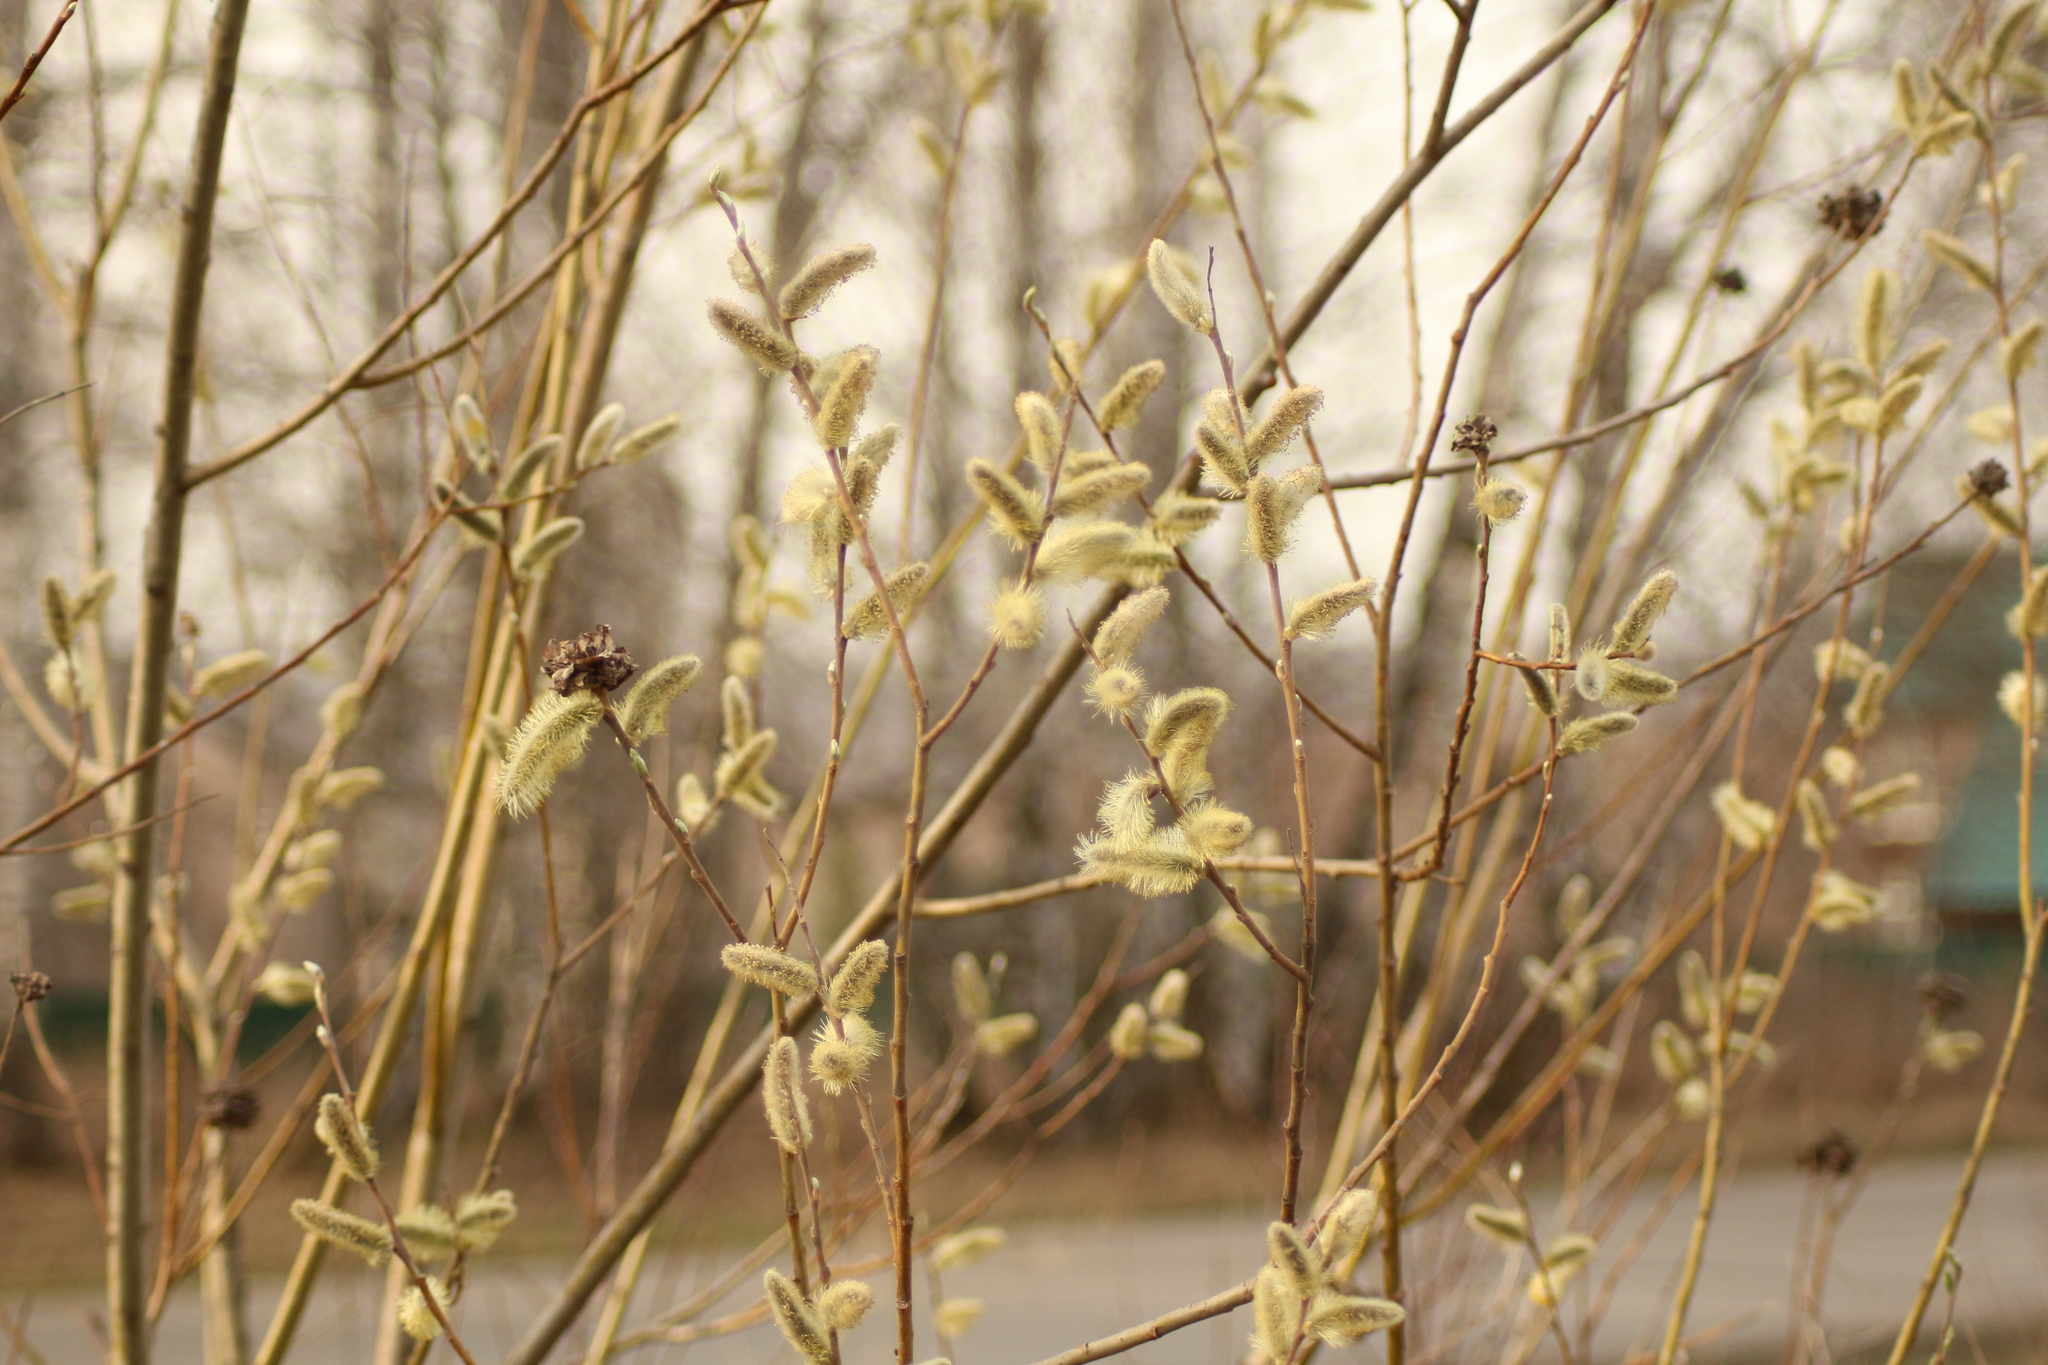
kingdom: Plantae
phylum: Tracheophyta
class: Magnoliopsida
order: Malpighiales
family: Salicaceae
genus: Salix
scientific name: Salix caprea
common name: Goat willow
